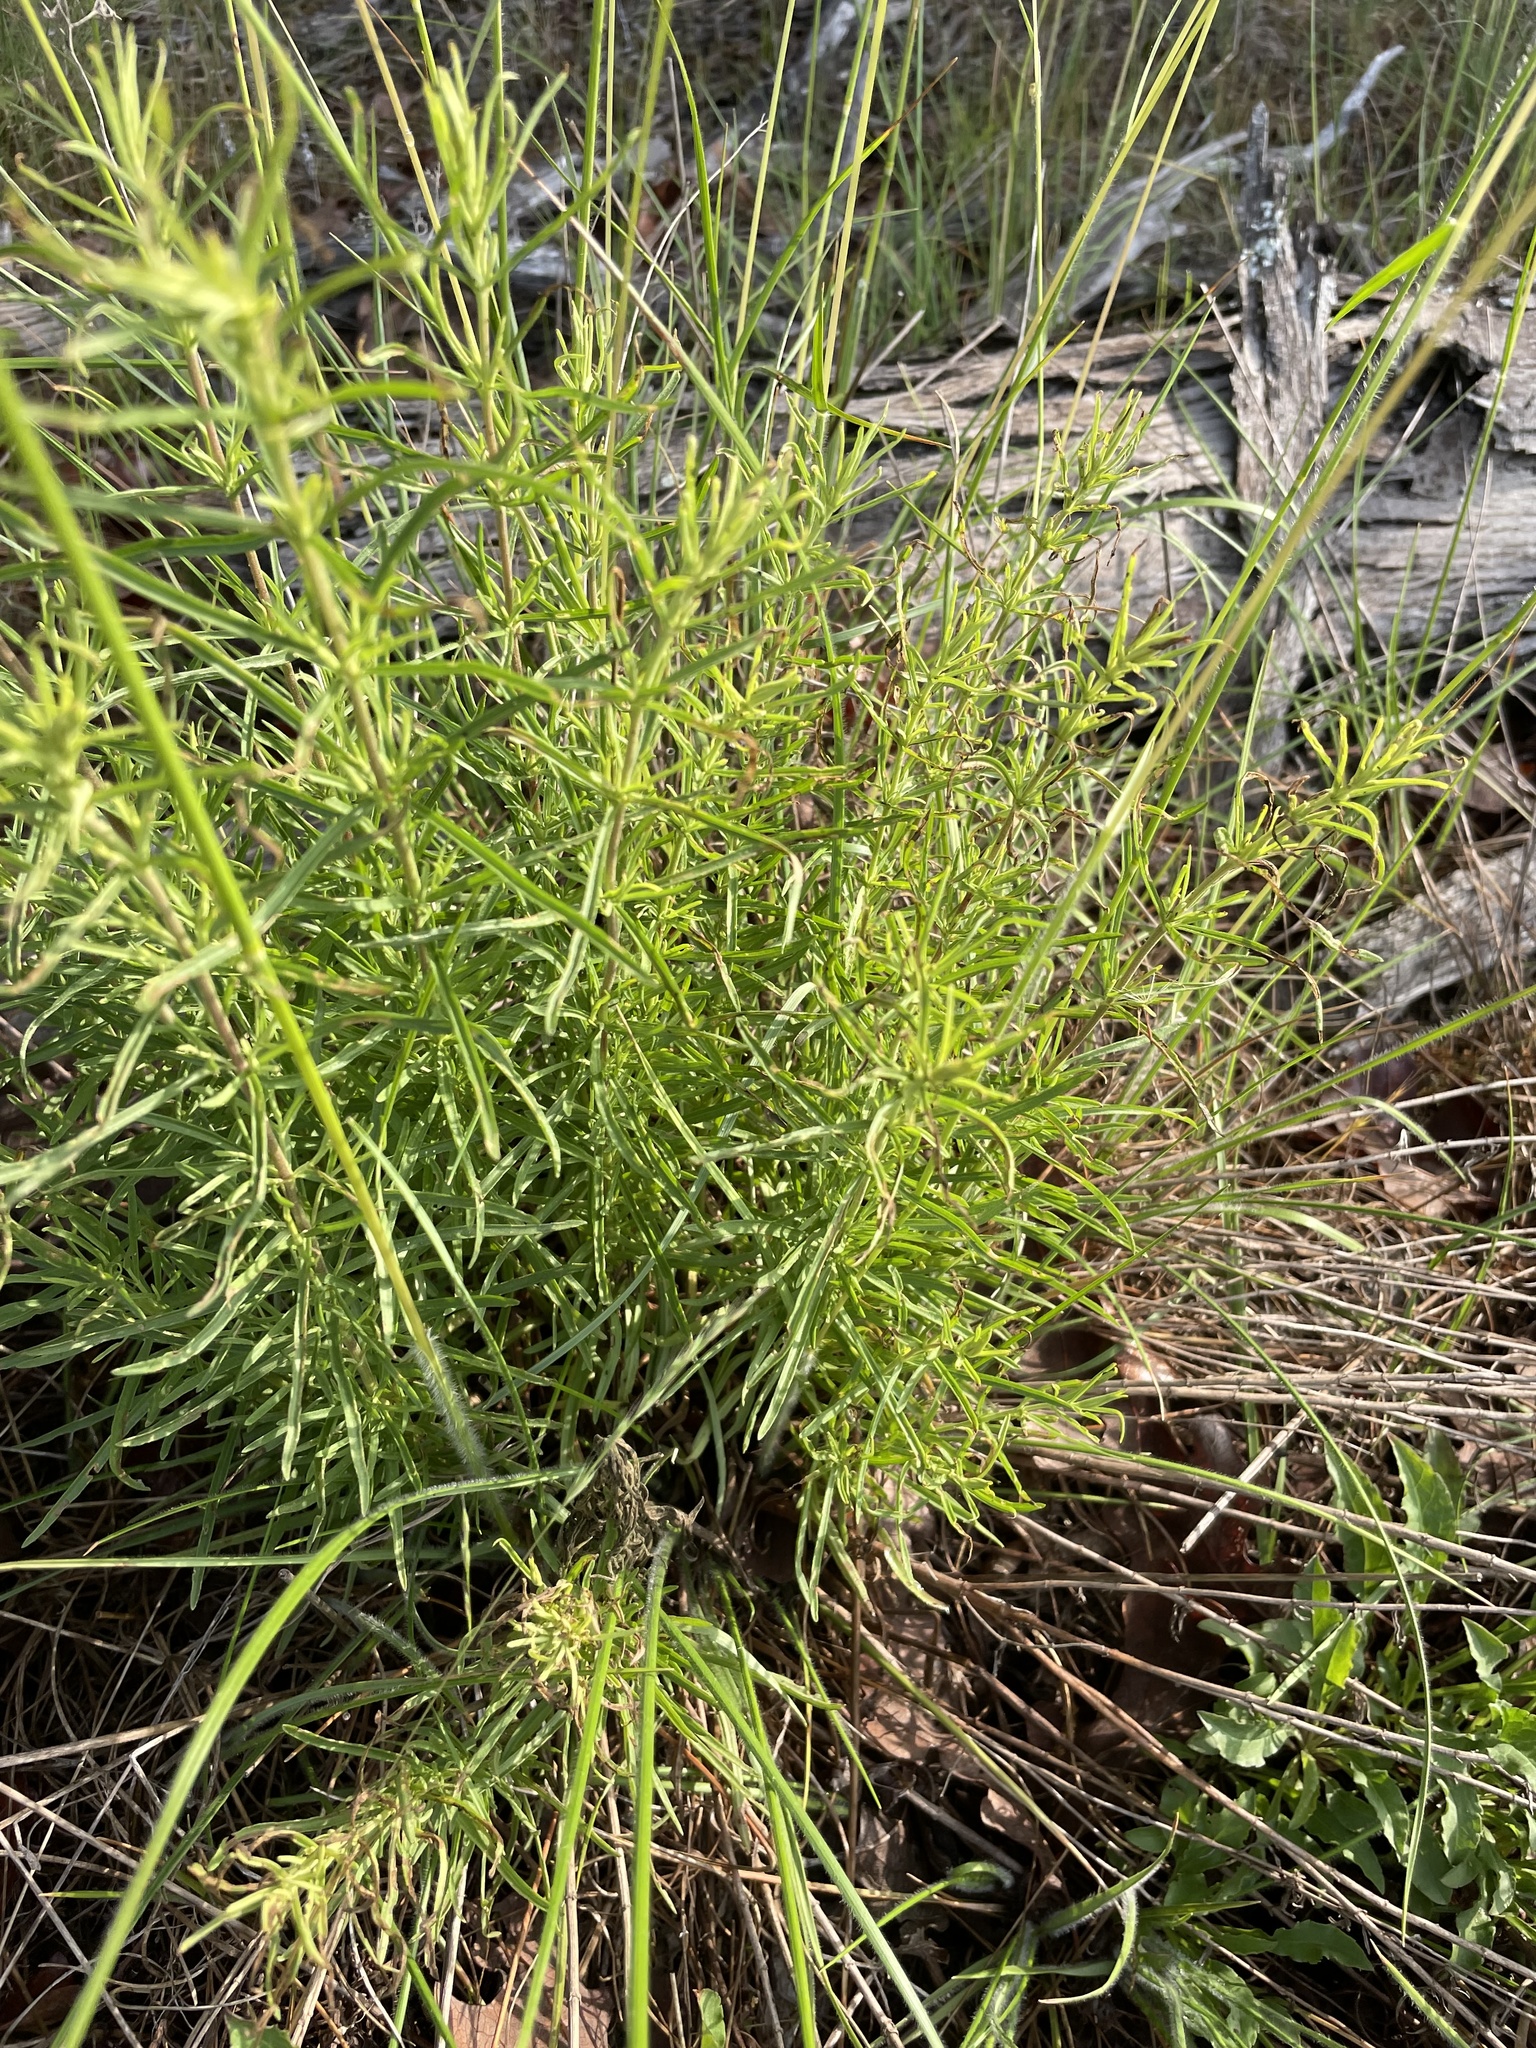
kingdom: Plantae
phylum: Tracheophyta
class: Magnoliopsida
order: Asterales
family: Asteraceae
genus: Eupatorium
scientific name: Eupatorium hyssopifolium
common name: Hyssop-leaf thoroughwort
